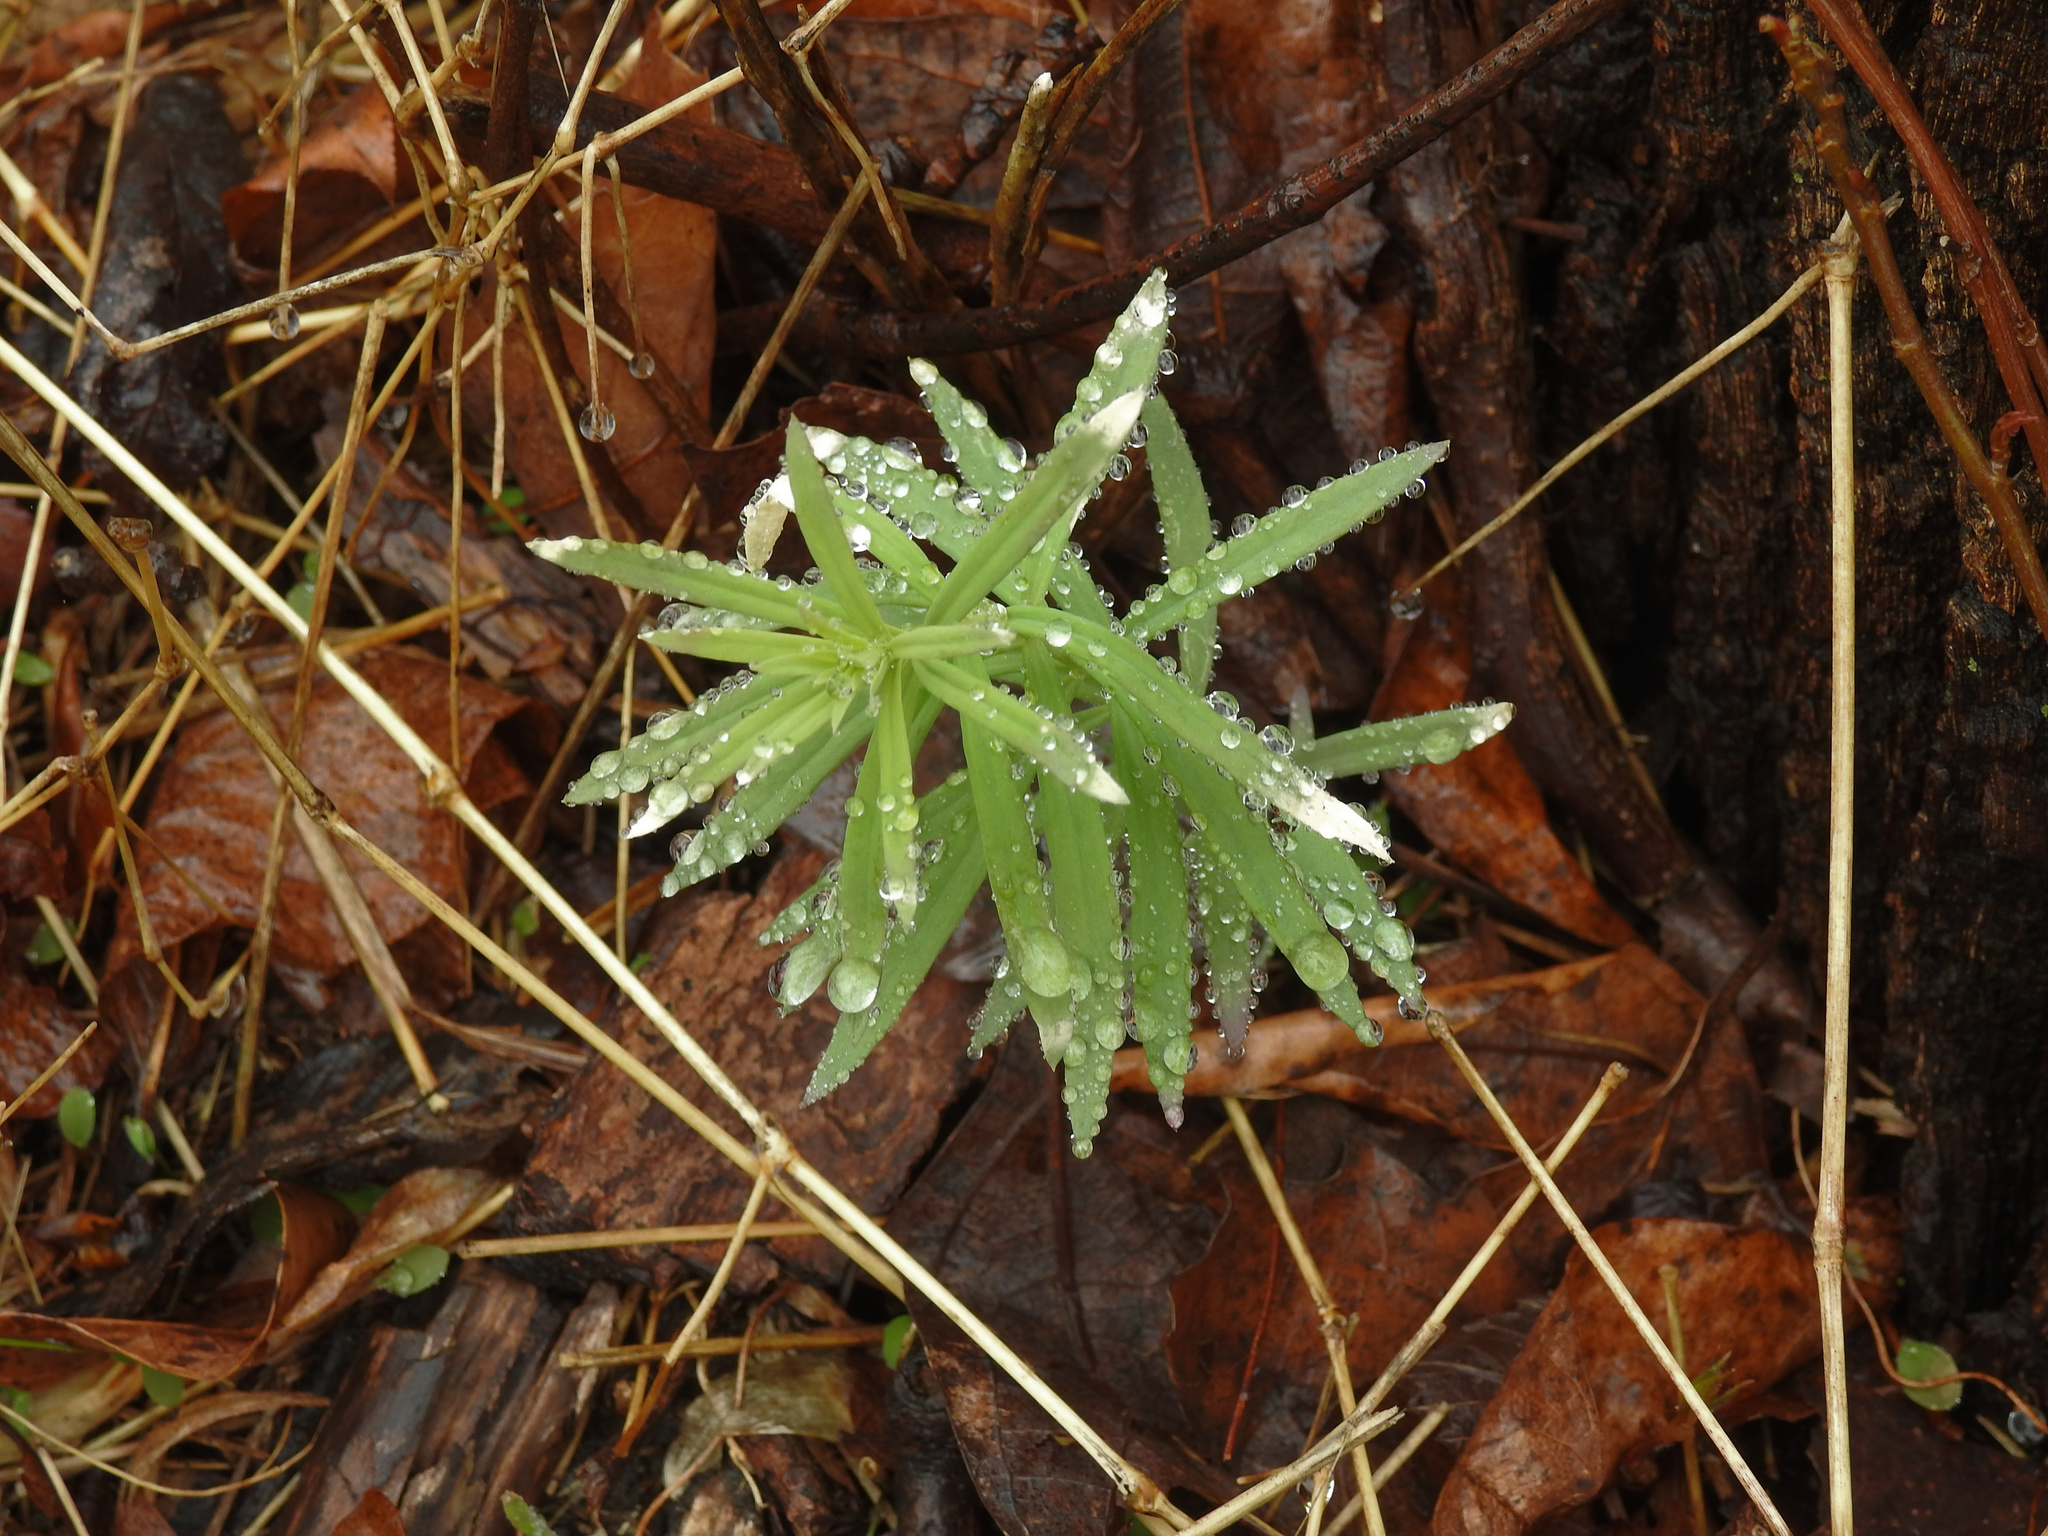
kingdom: Plantae
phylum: Tracheophyta
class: Magnoliopsida
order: Lamiales
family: Plantaginaceae
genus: Linaria
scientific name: Linaria vulgaris
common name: Butter and eggs
